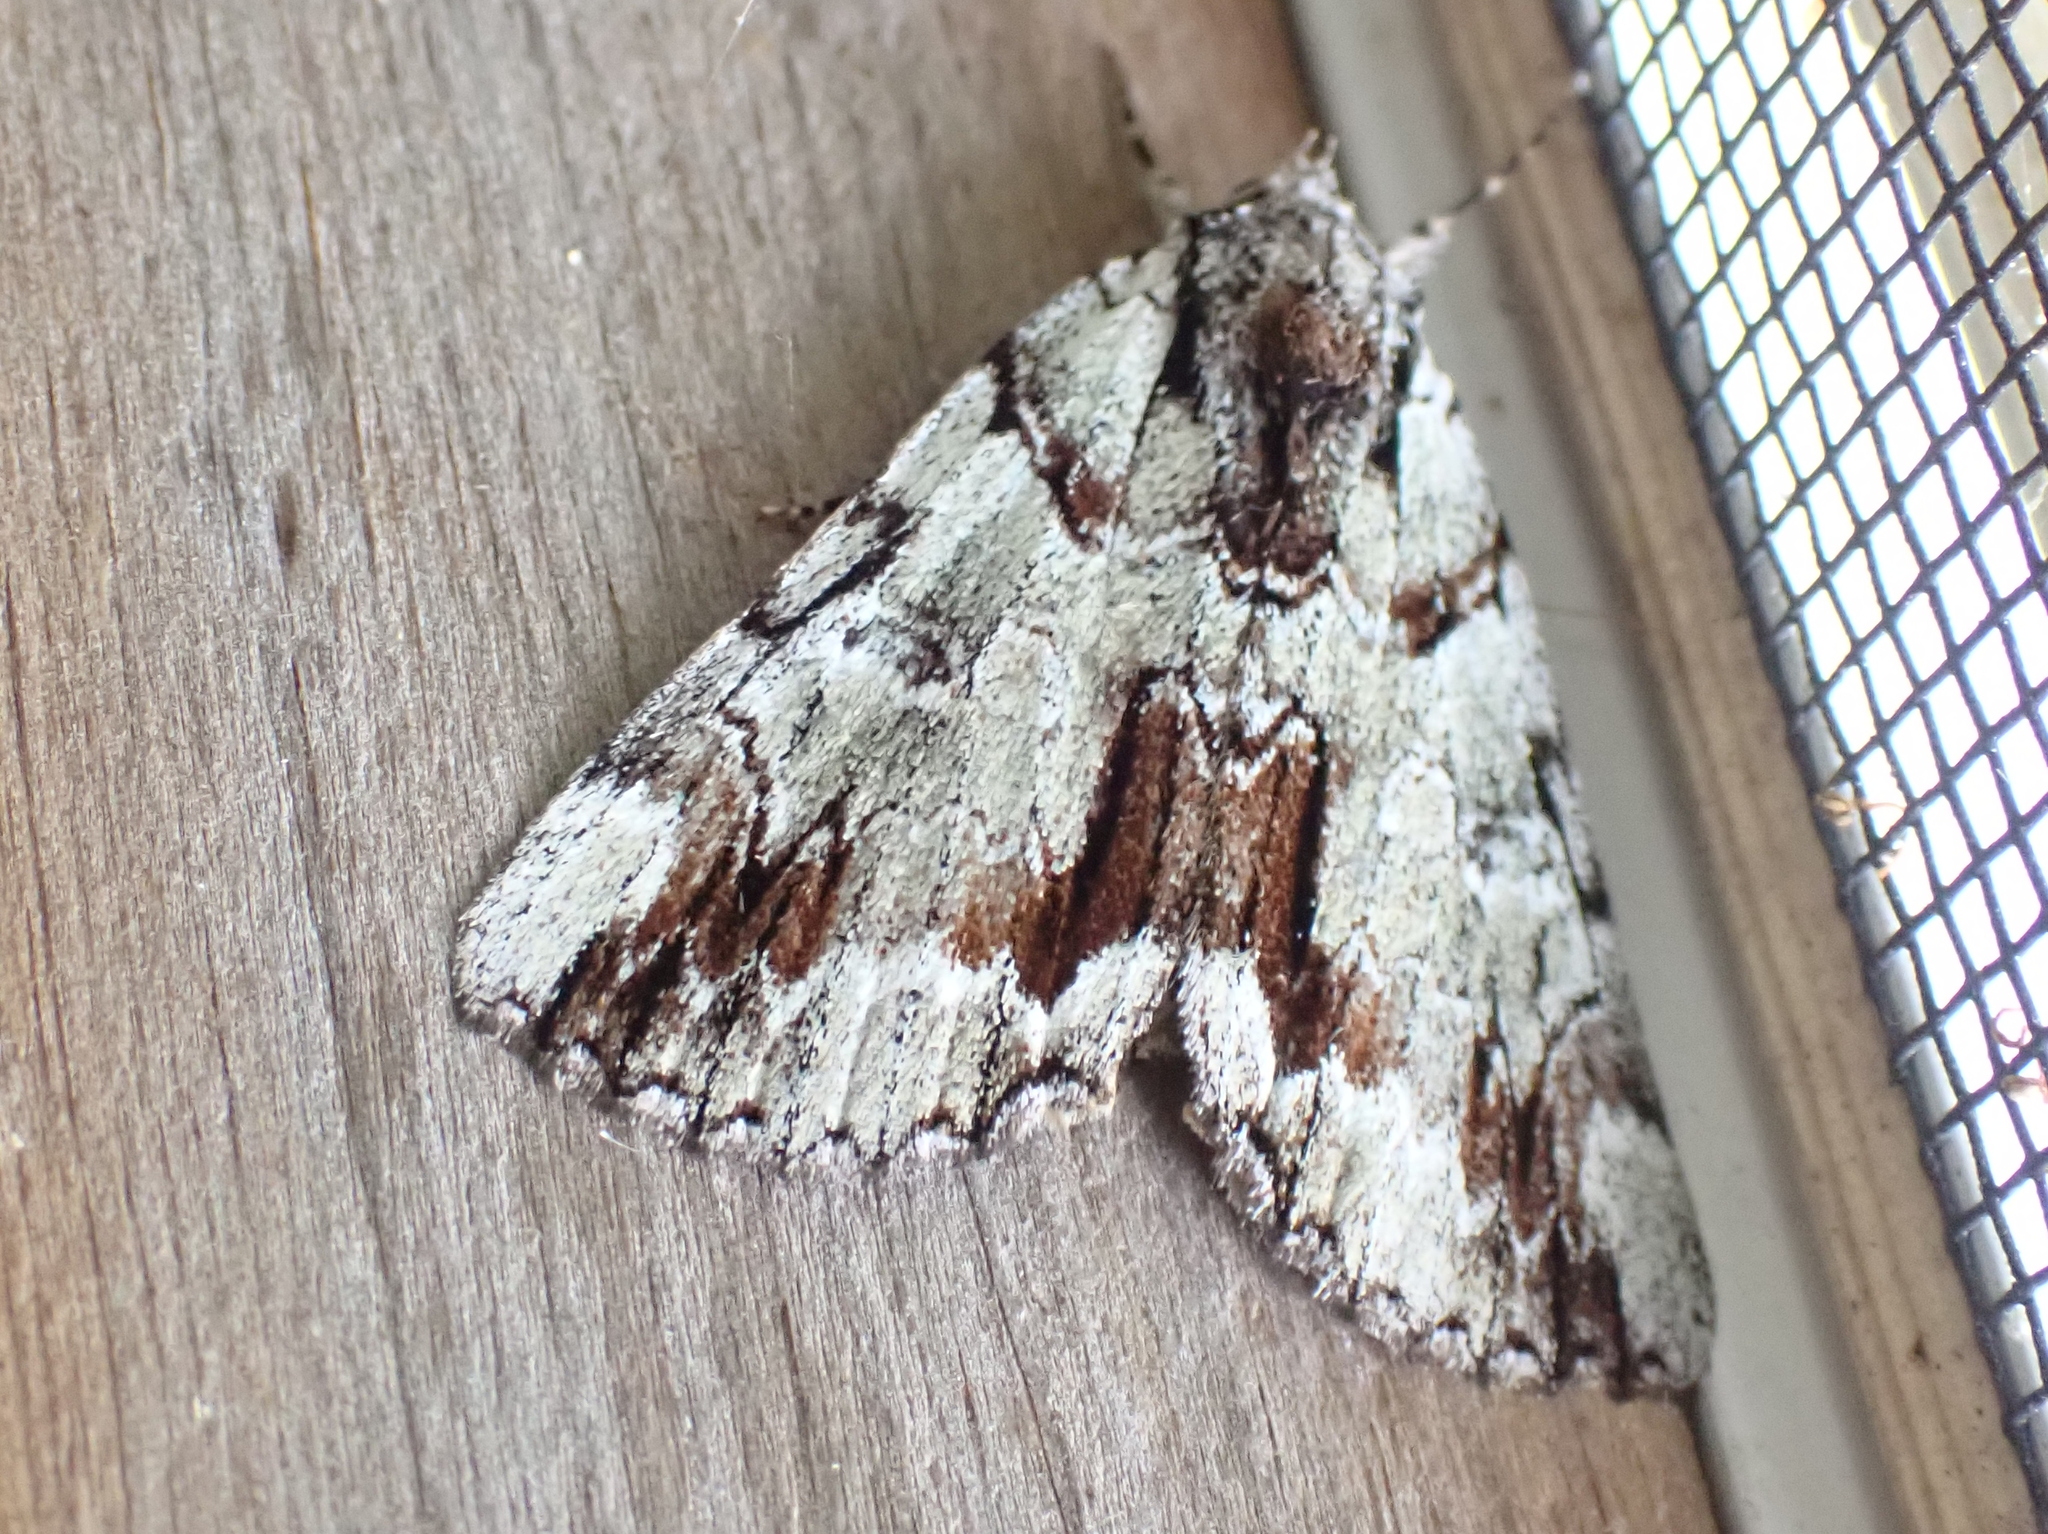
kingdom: Animalia
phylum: Arthropoda
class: Insecta
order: Lepidoptera
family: Erebidae
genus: Catocala
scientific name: Catocala praeclara
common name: Praeclara underwing
